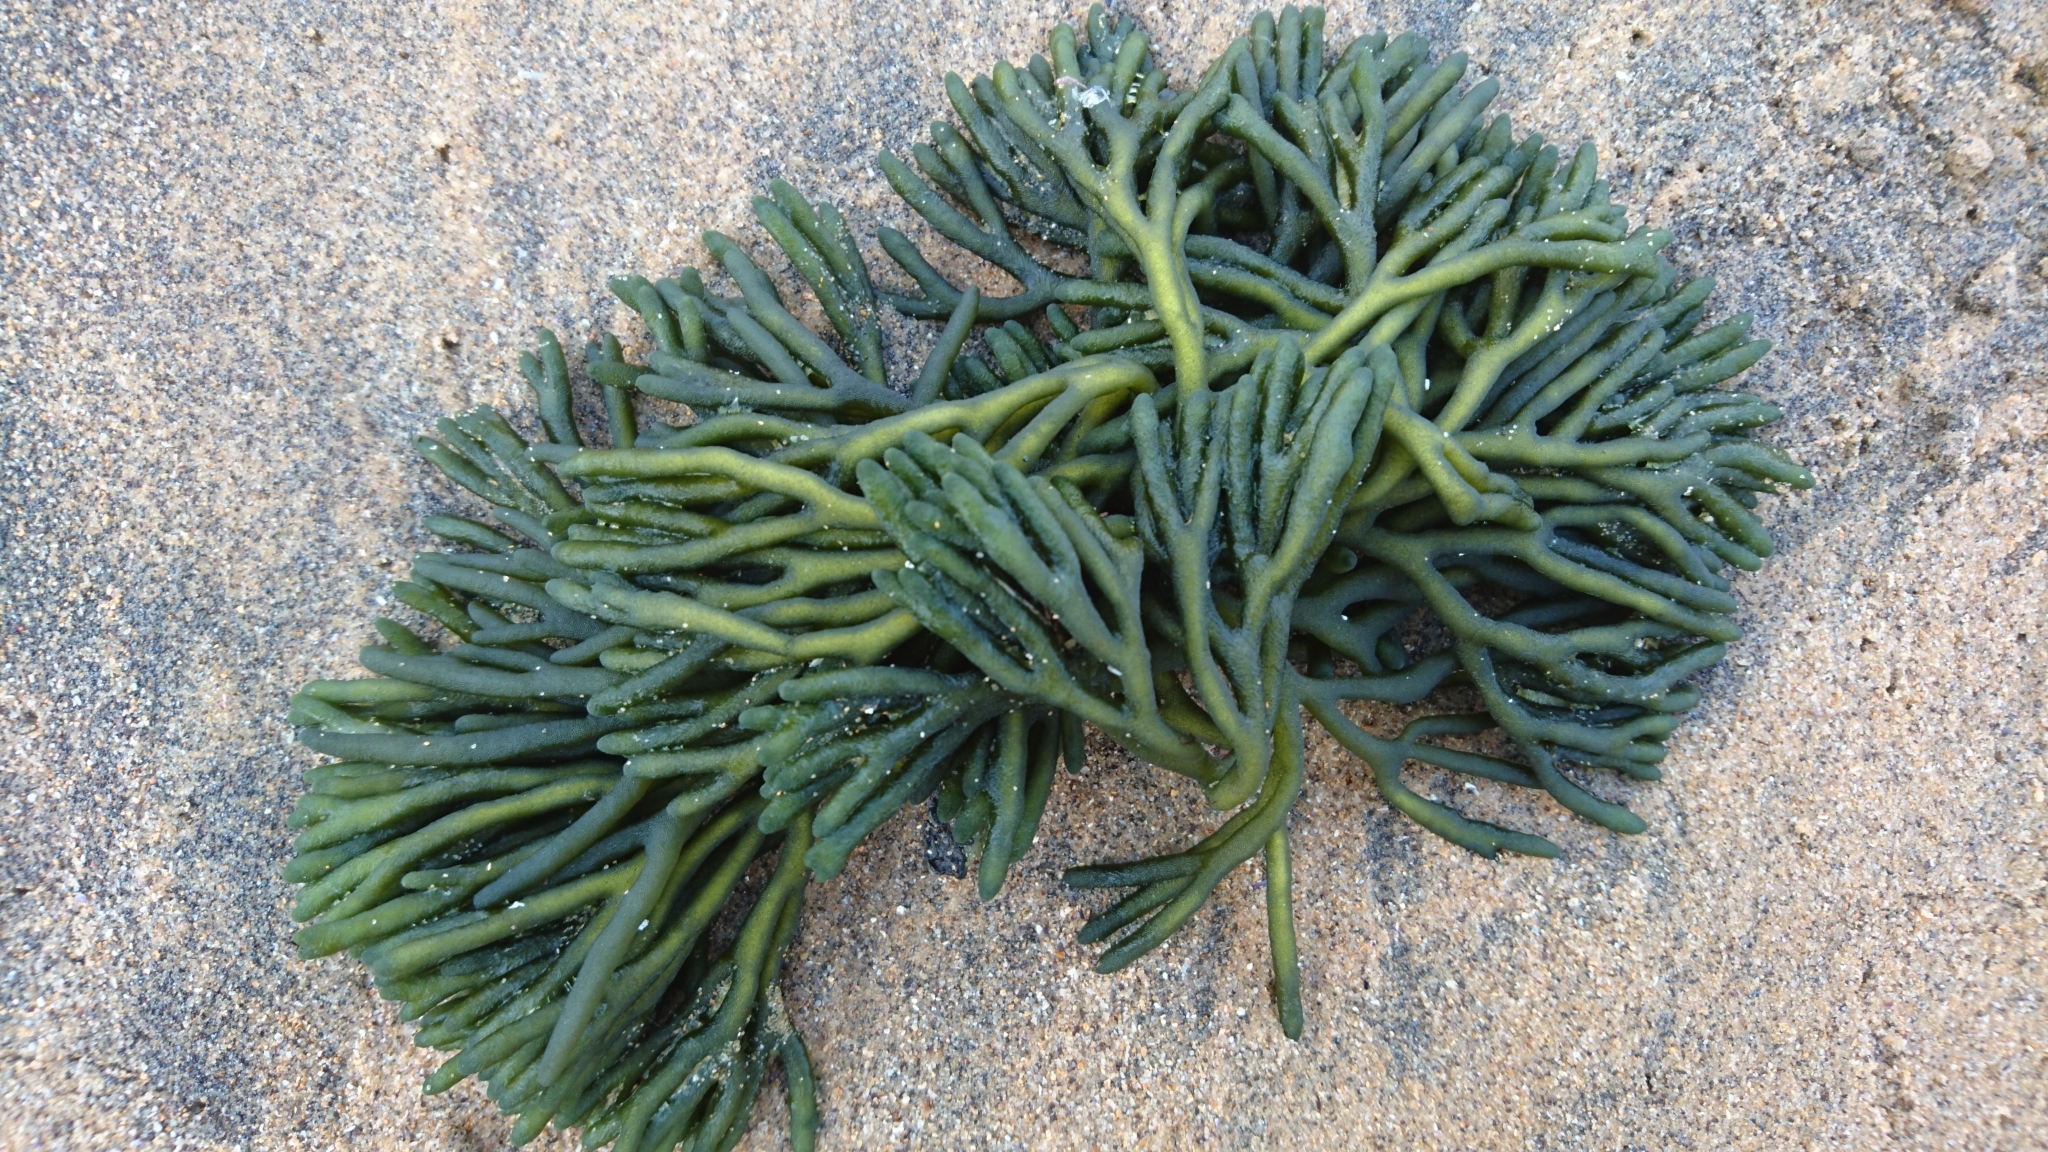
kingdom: Plantae
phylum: Chlorophyta
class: Ulvophyceae
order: Bryopsidales
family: Codiaceae
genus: Codium
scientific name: Codium fragile
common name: Dead man's fingers
